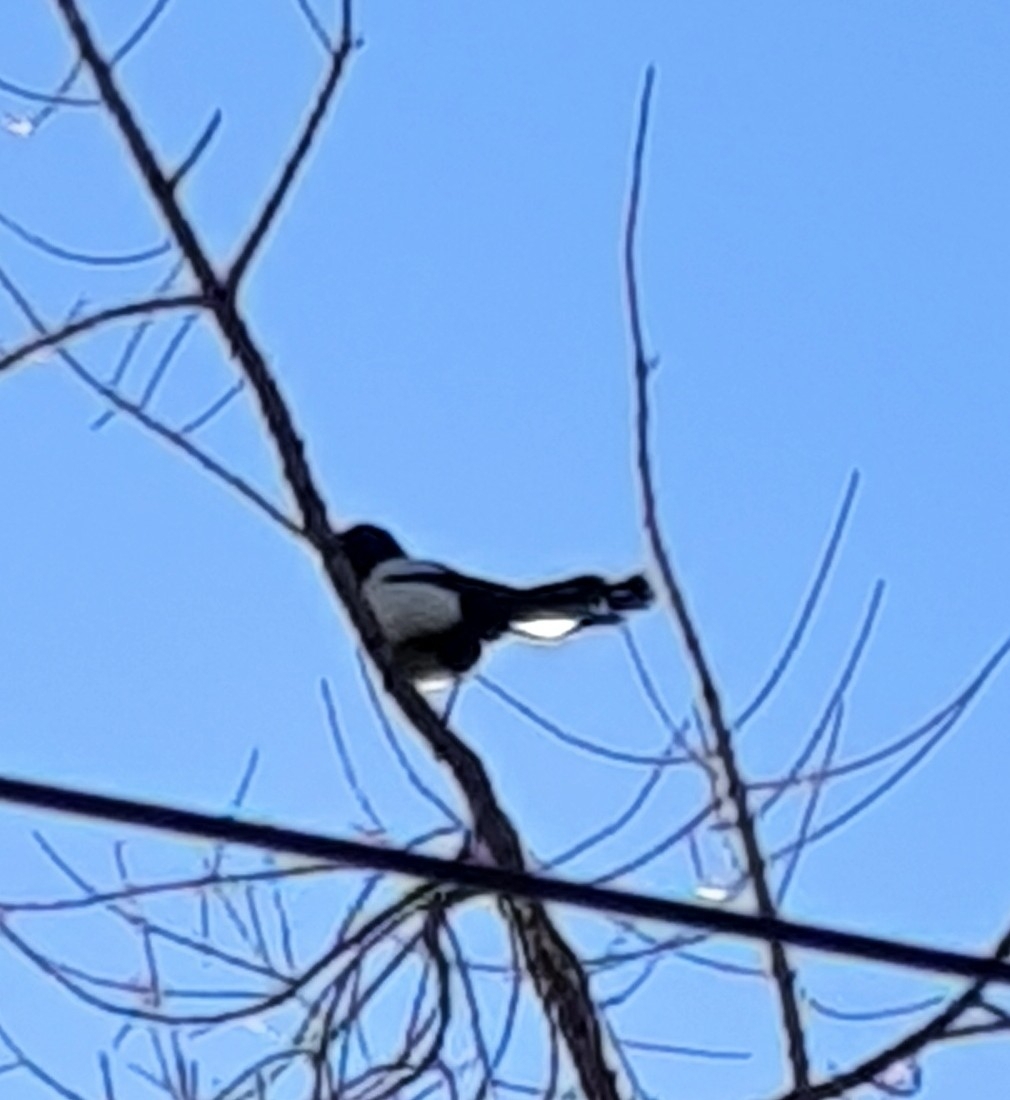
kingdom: Animalia
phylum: Chordata
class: Aves
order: Passeriformes
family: Corvidae
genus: Pica
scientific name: Pica pica
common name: Eurasian magpie
